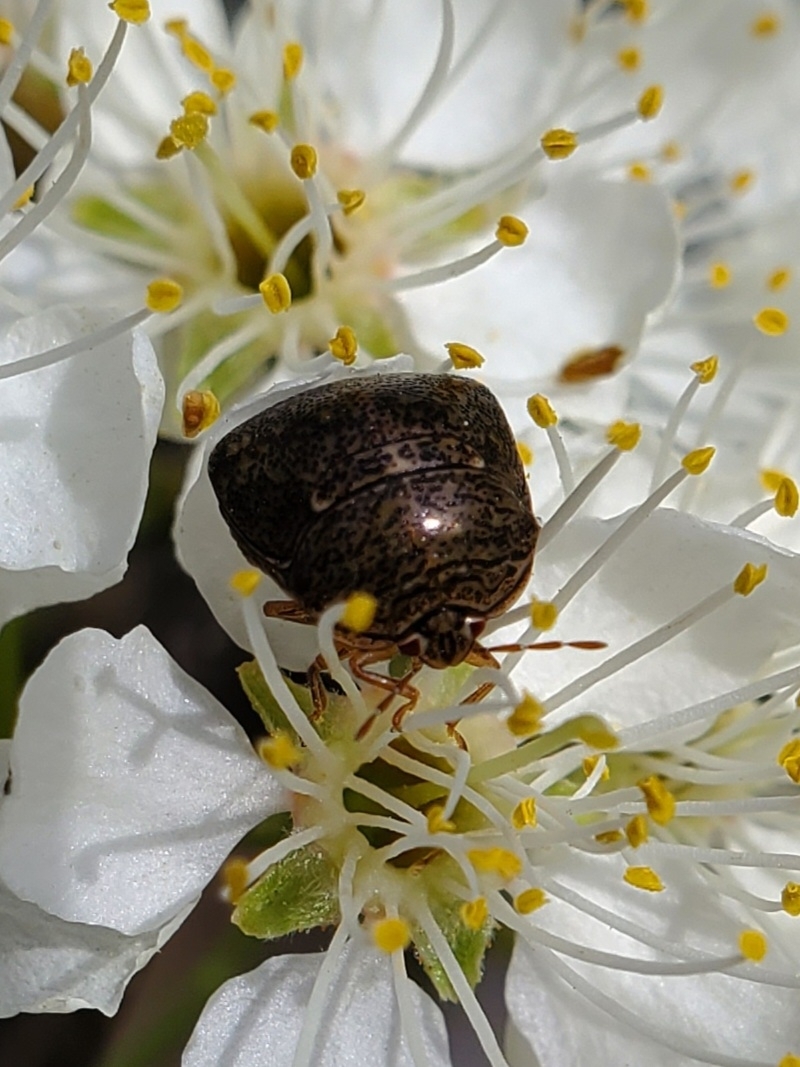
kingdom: Animalia
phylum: Arthropoda
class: Insecta
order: Hemiptera
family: Plataspidae
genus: Megacopta
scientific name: Megacopta cribraria
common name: Bean plataspid
